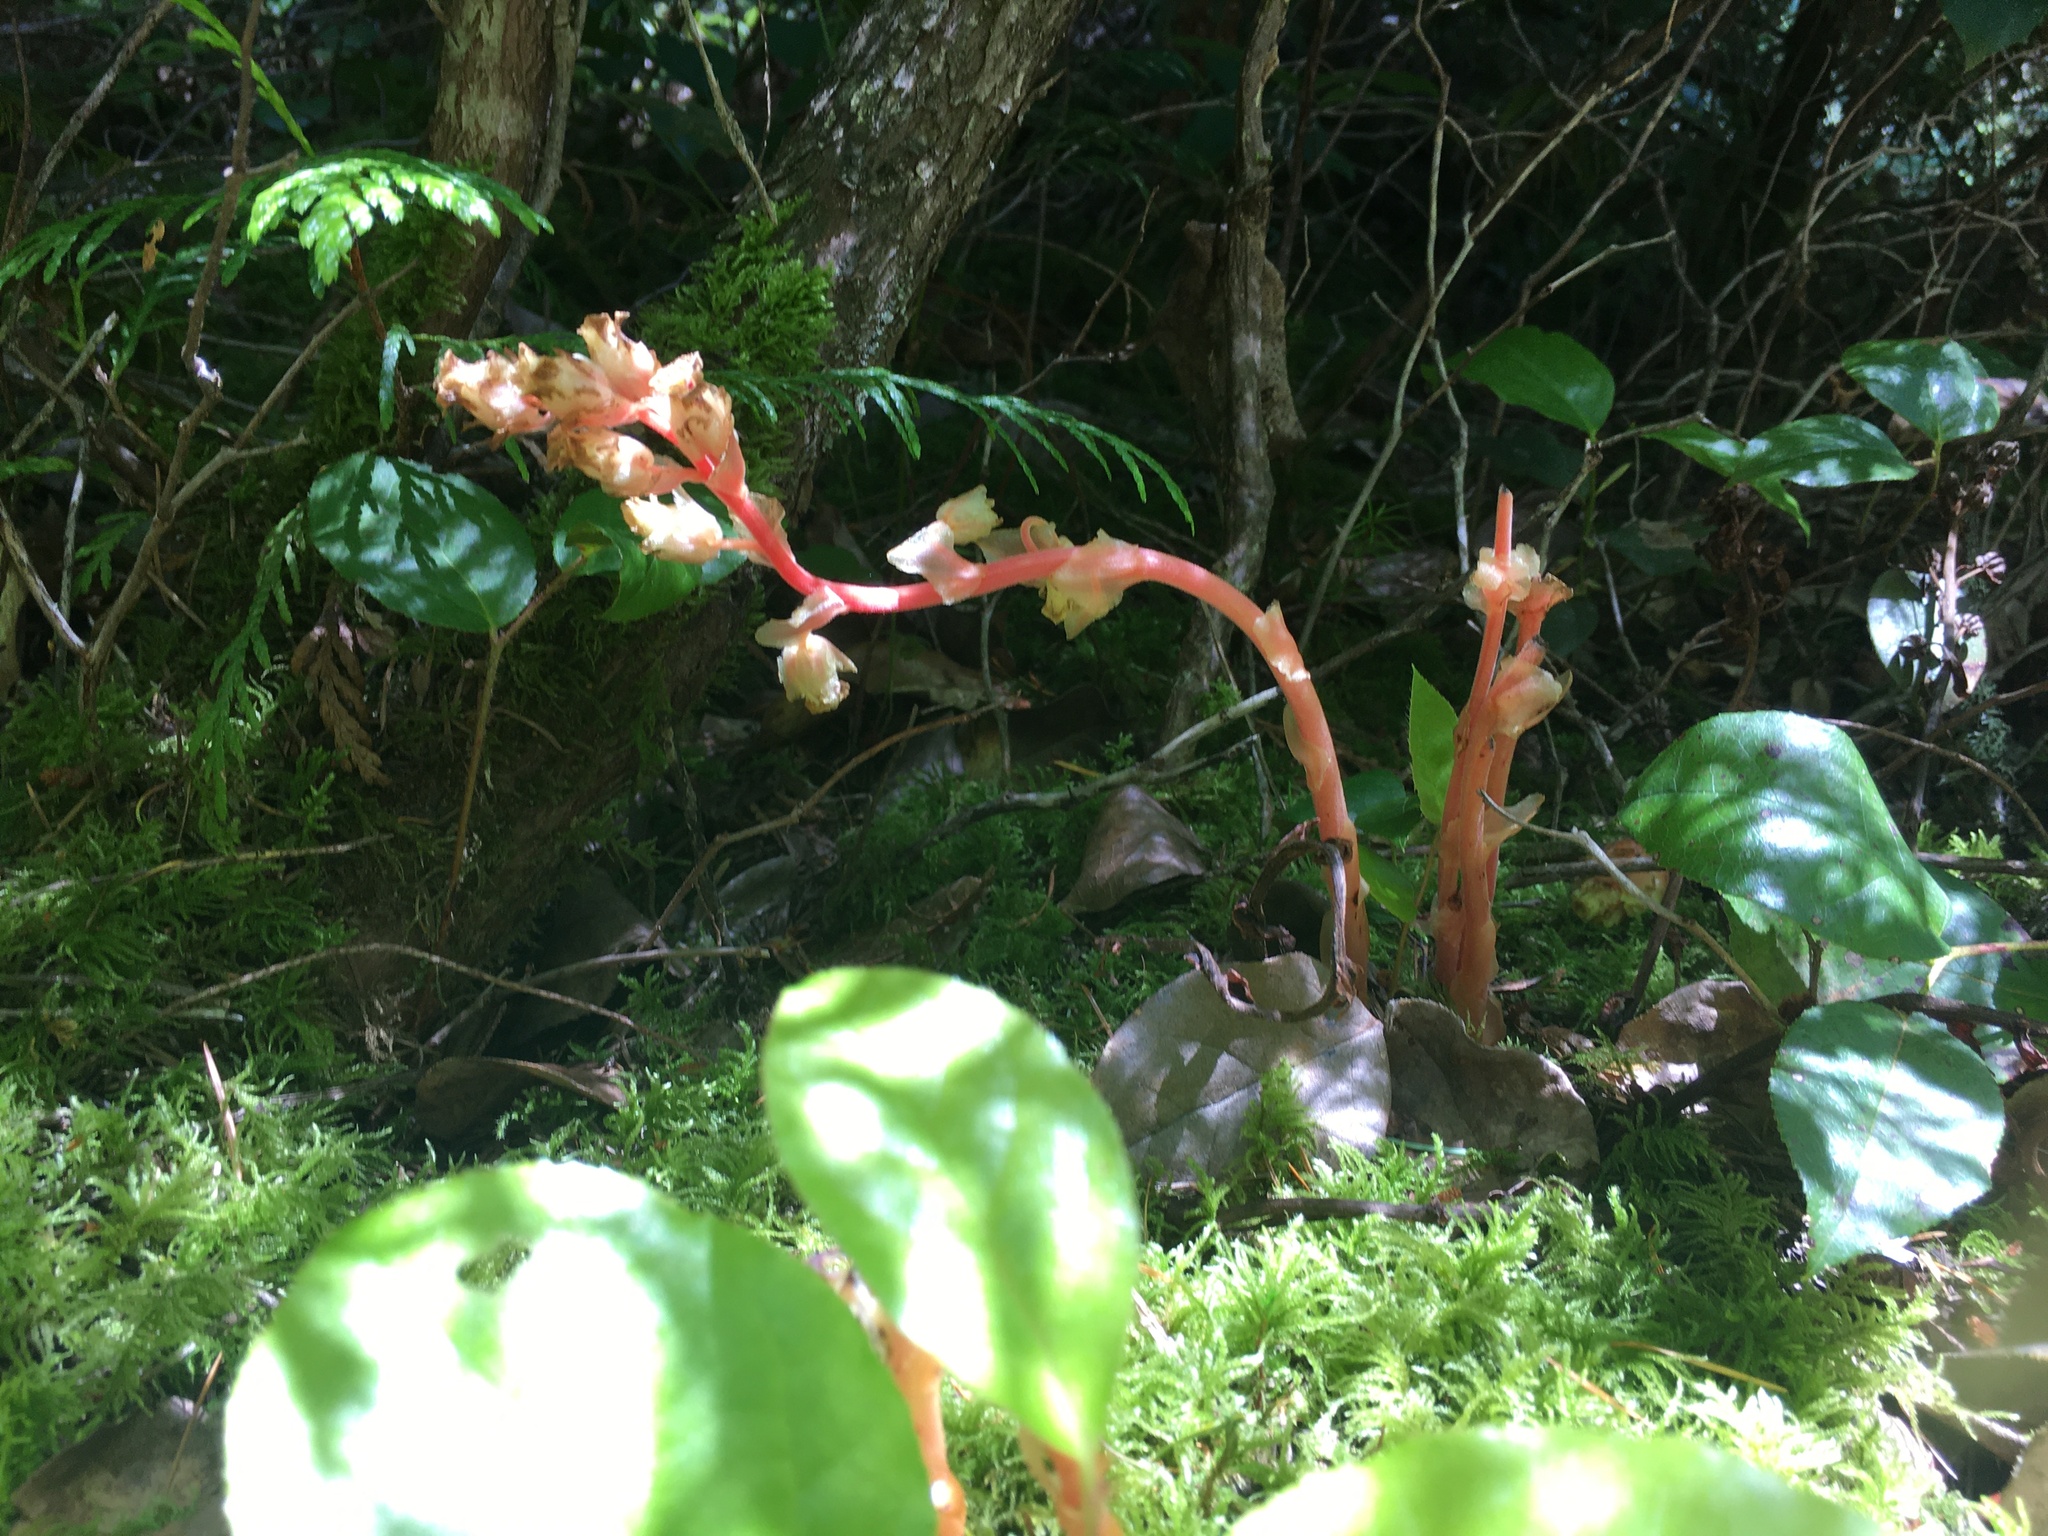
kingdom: Plantae
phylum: Tracheophyta
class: Magnoliopsida
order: Ericales
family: Ericaceae
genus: Hypopitys
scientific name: Hypopitys monotropa
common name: Yellow bird's-nest
